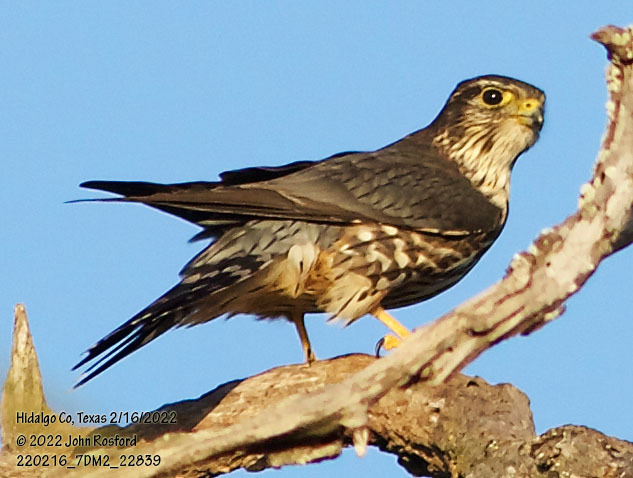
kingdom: Animalia
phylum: Chordata
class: Aves
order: Falconiformes
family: Falconidae
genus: Falco
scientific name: Falco columbarius
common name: Merlin
